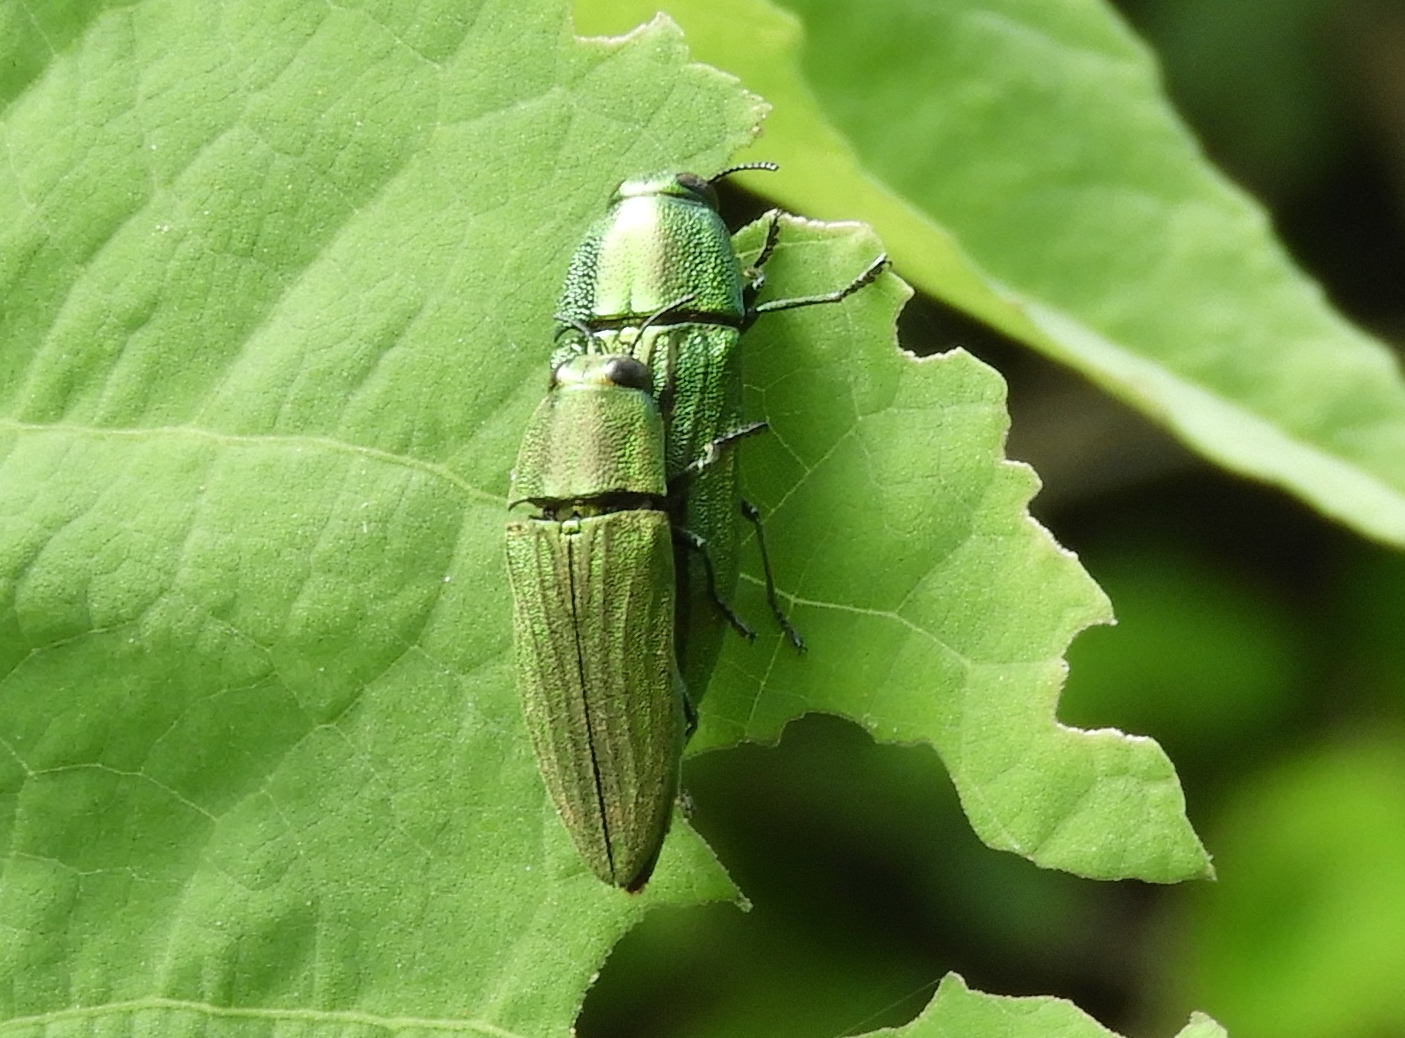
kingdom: Animalia
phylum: Arthropoda
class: Insecta
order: Coleoptera
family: Buprestidae
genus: Agaeocera
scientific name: Agaeocera scintillans
